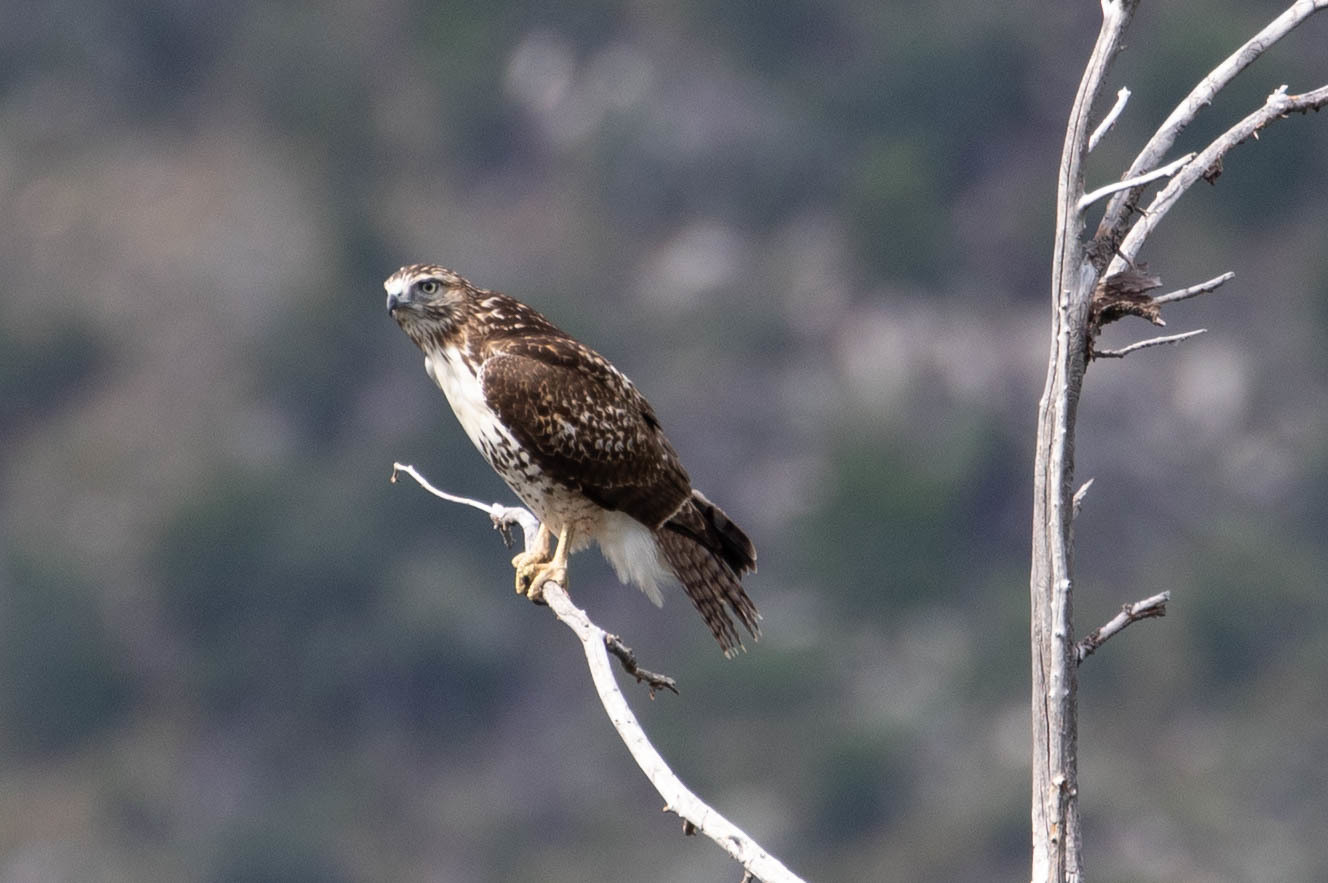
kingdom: Animalia
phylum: Chordata
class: Aves
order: Accipitriformes
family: Accipitridae
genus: Buteo
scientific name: Buteo jamaicensis
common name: Red-tailed hawk
